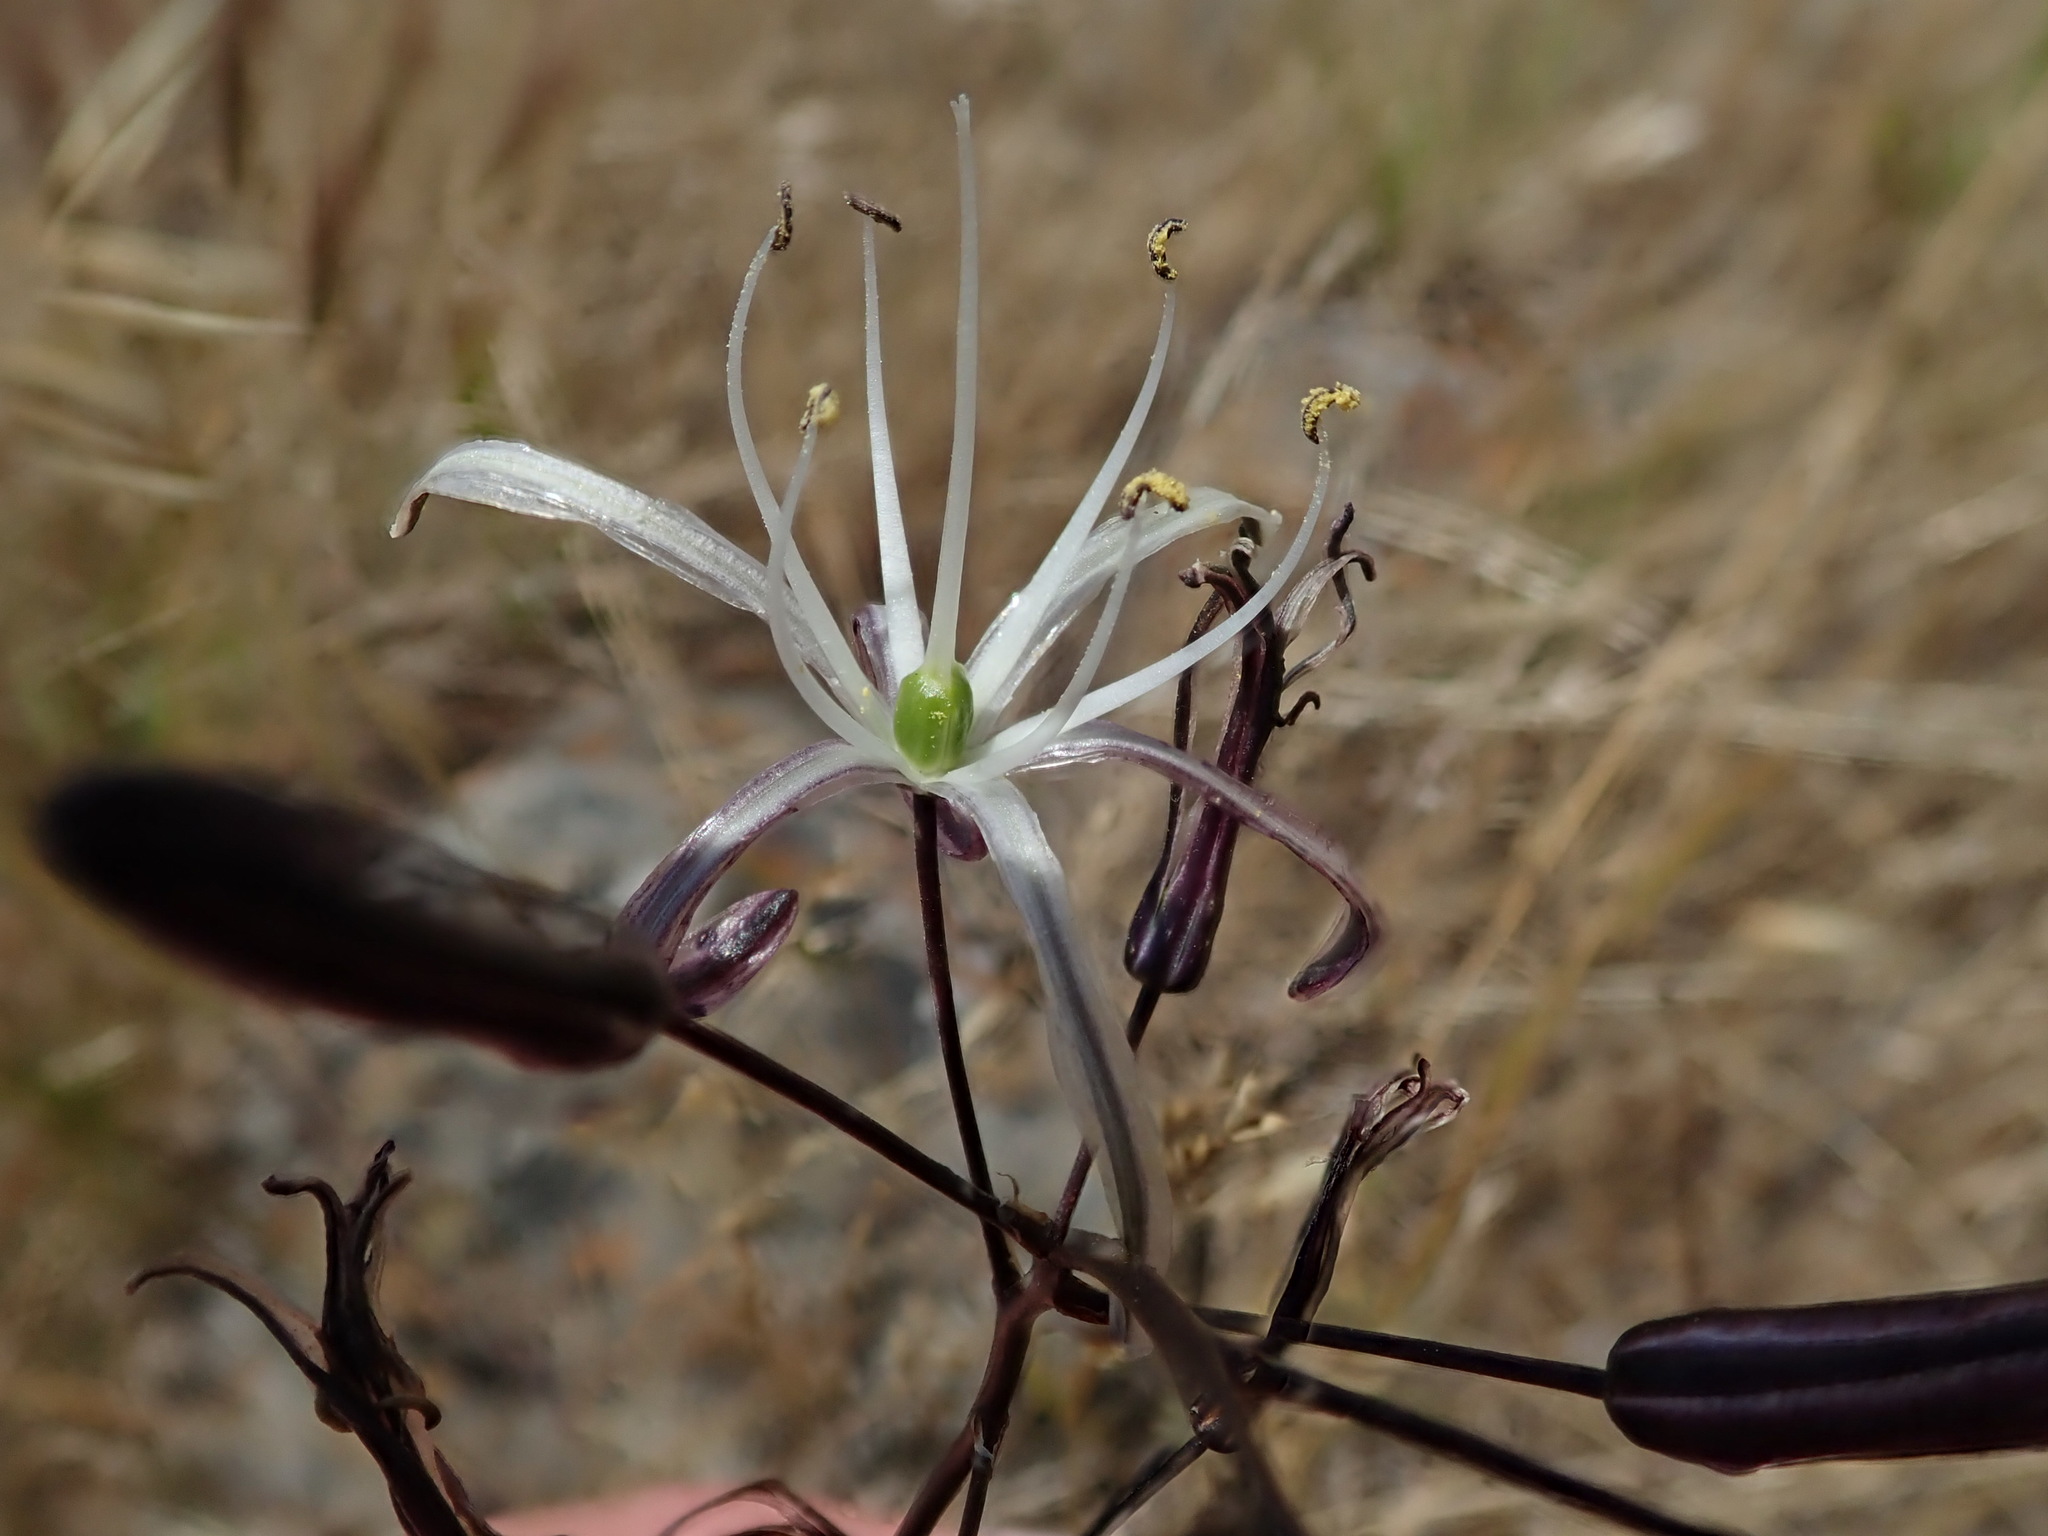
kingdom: Plantae
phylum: Tracheophyta
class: Liliopsida
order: Asparagales
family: Asparagaceae
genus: Chlorogalum
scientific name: Chlorogalum pomeridianum
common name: Amole
